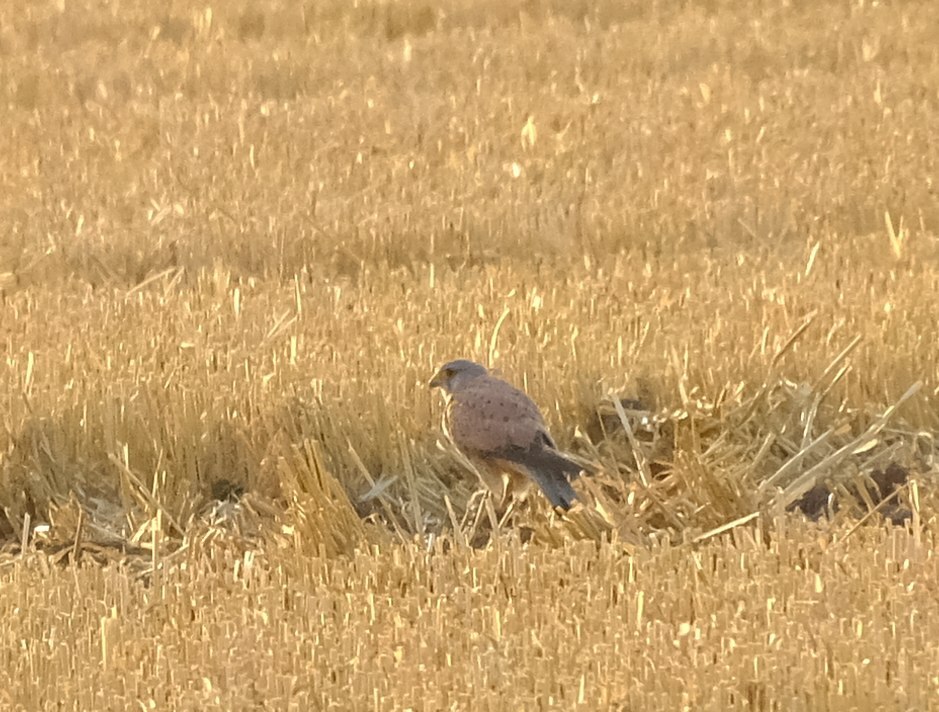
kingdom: Animalia
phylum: Chordata
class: Aves
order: Falconiformes
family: Falconidae
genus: Falco
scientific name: Falco tinnunculus
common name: Common kestrel
